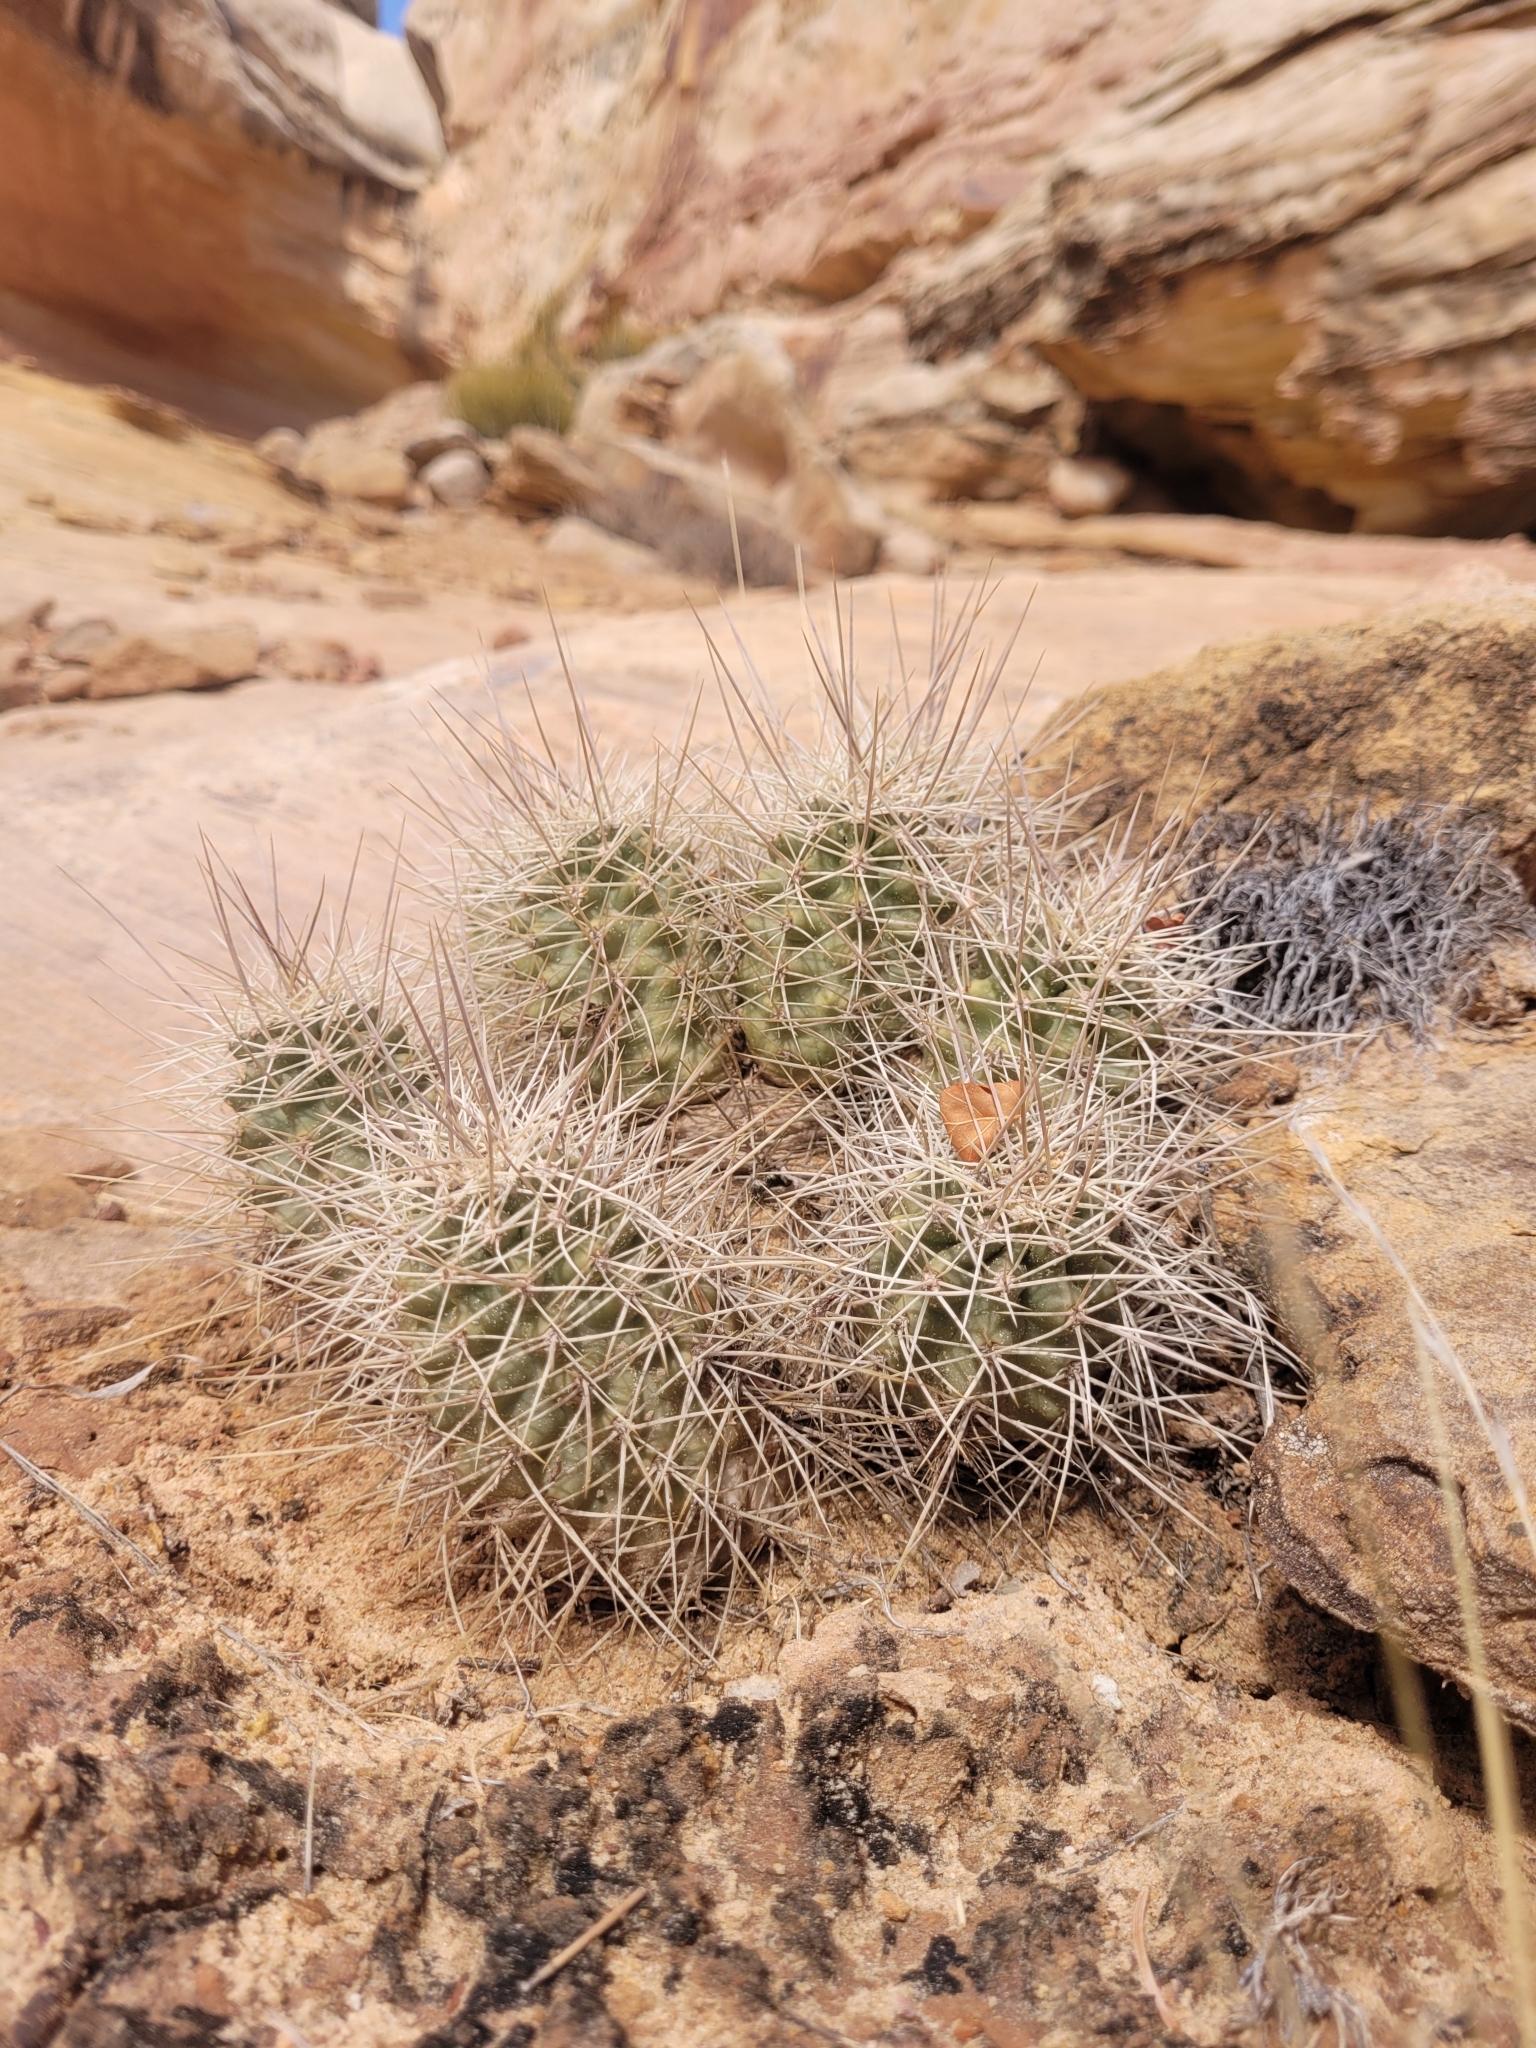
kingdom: Plantae
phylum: Tracheophyta
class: Magnoliopsida
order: Caryophyllales
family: Cactaceae
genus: Echinocereus
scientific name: Echinocereus triglochidiatus
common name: Claretcup hedgehog
